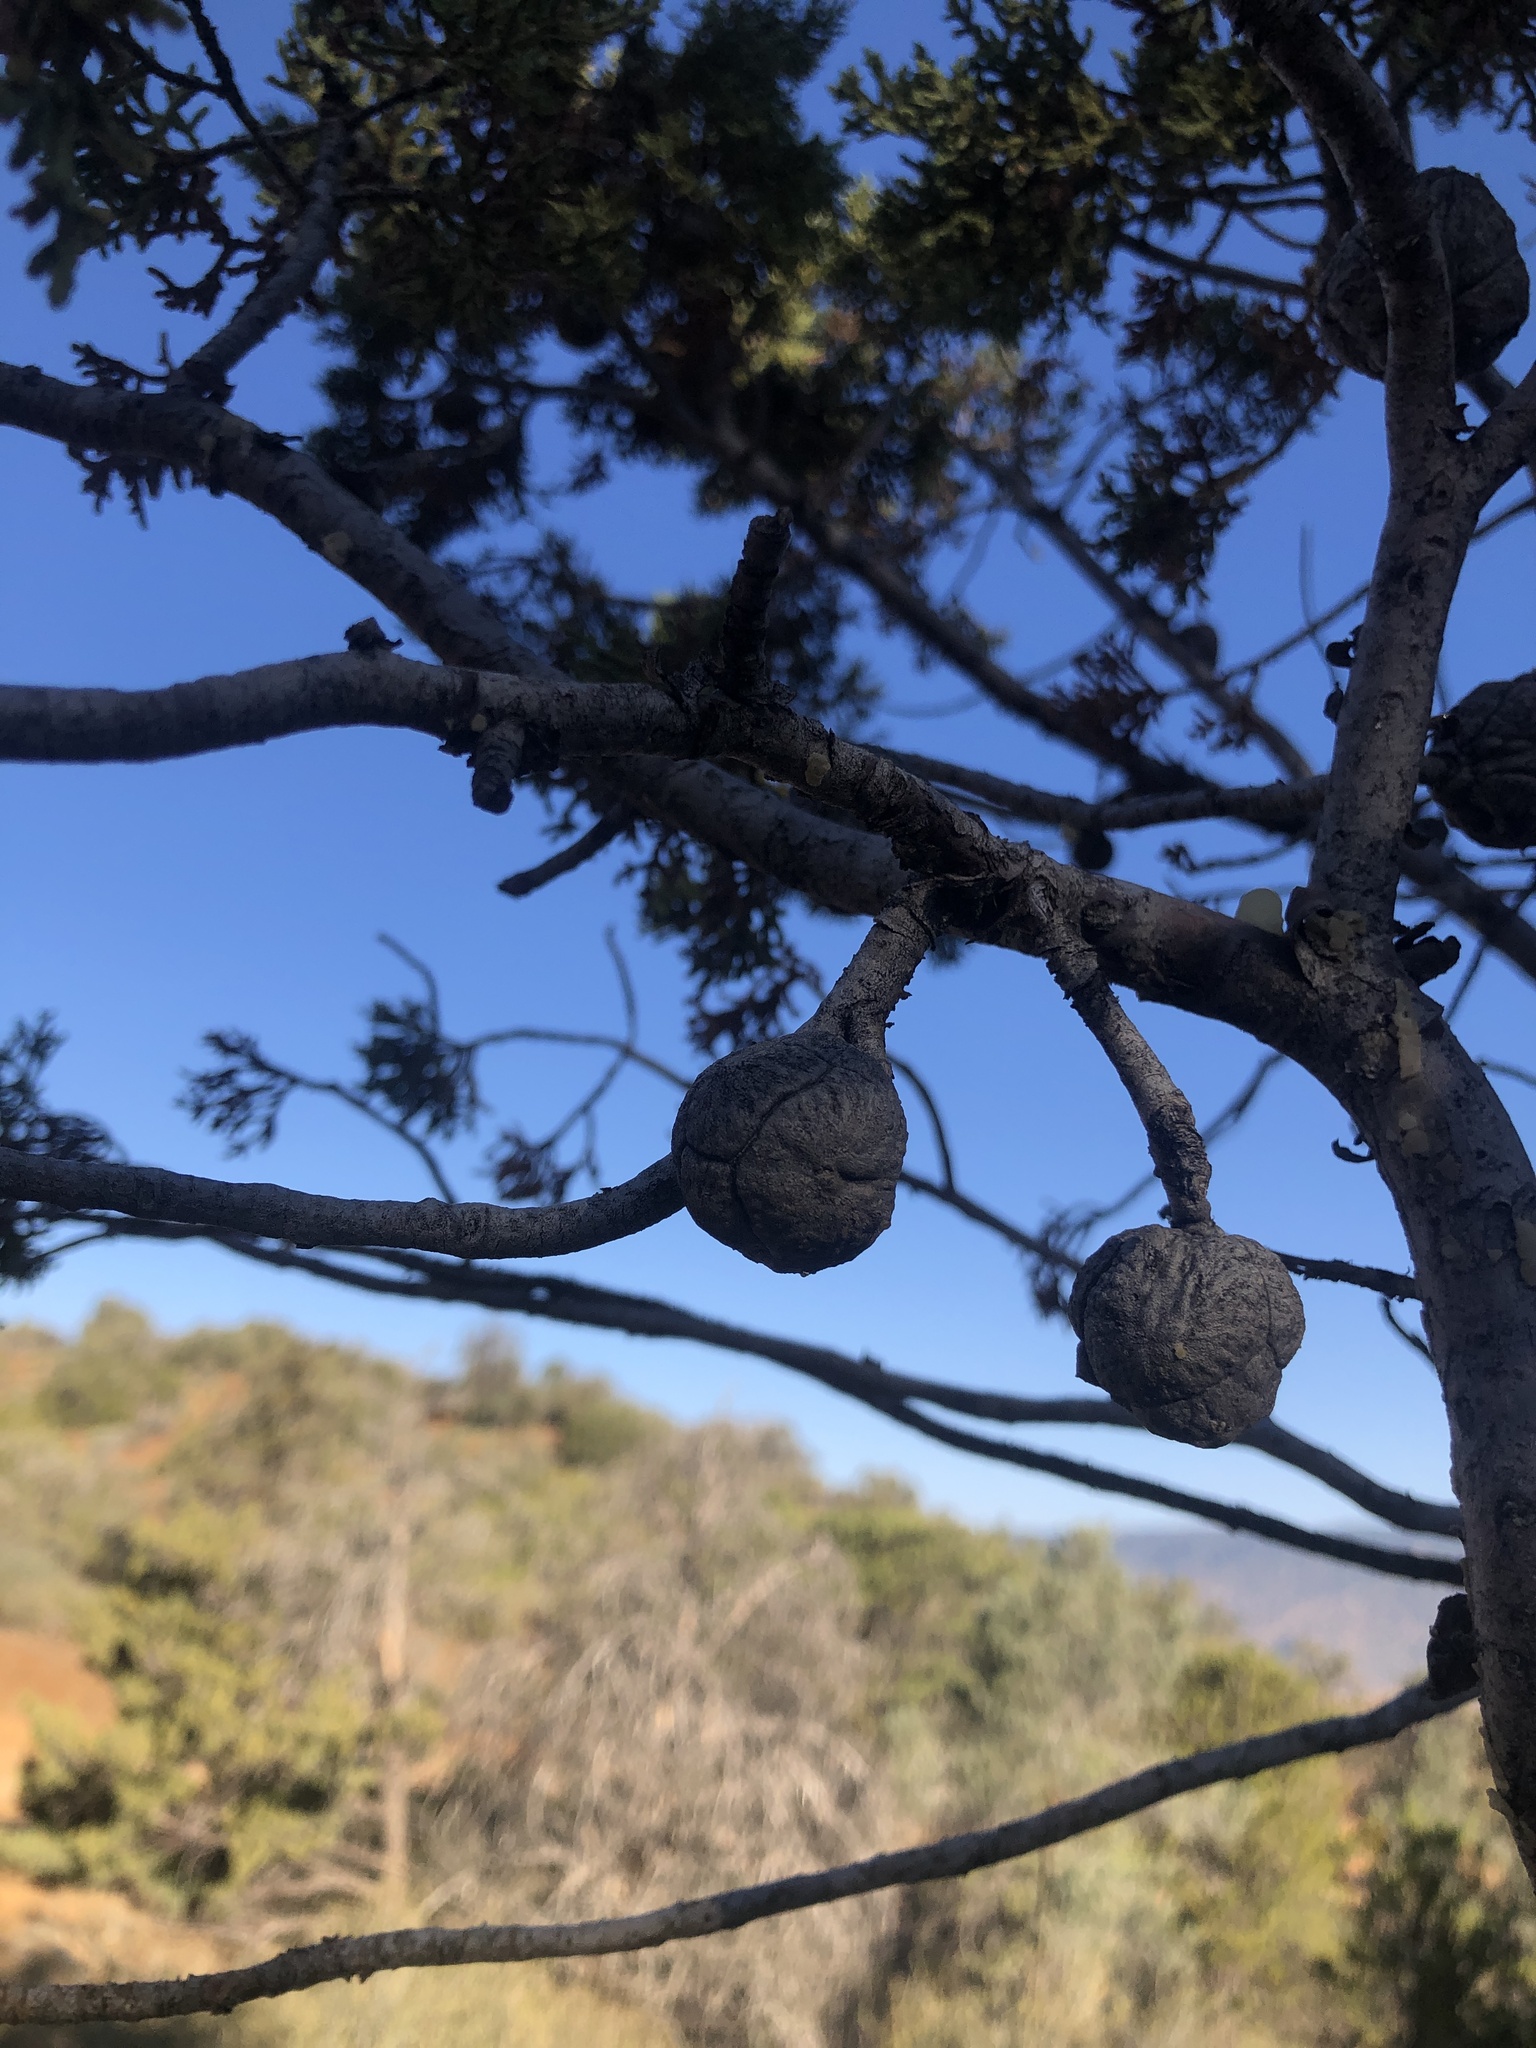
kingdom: Plantae
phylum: Tracheophyta
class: Pinopsida
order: Pinales
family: Cupressaceae
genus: Cupressus
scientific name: Cupressus arizonica
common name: Arizona cypress
